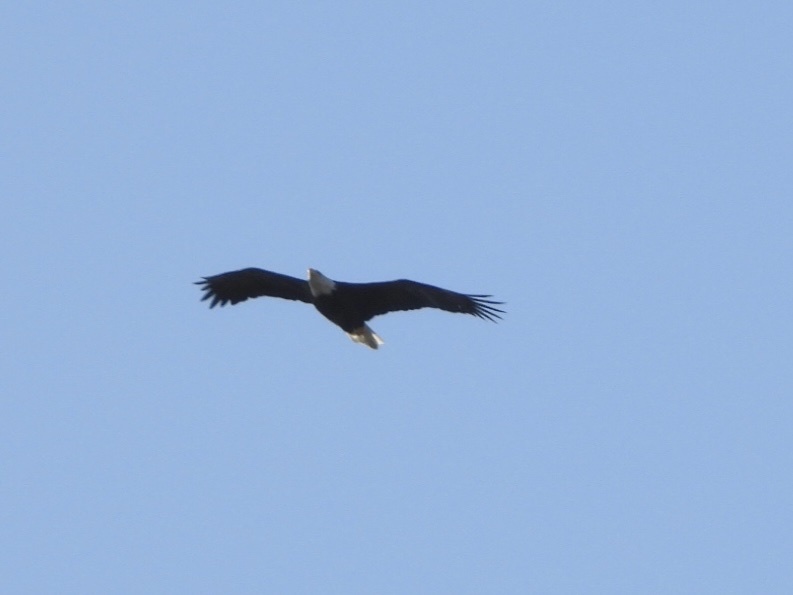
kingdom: Animalia
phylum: Chordata
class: Aves
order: Accipitriformes
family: Accipitridae
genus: Haliaeetus
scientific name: Haliaeetus leucocephalus
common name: Bald eagle
